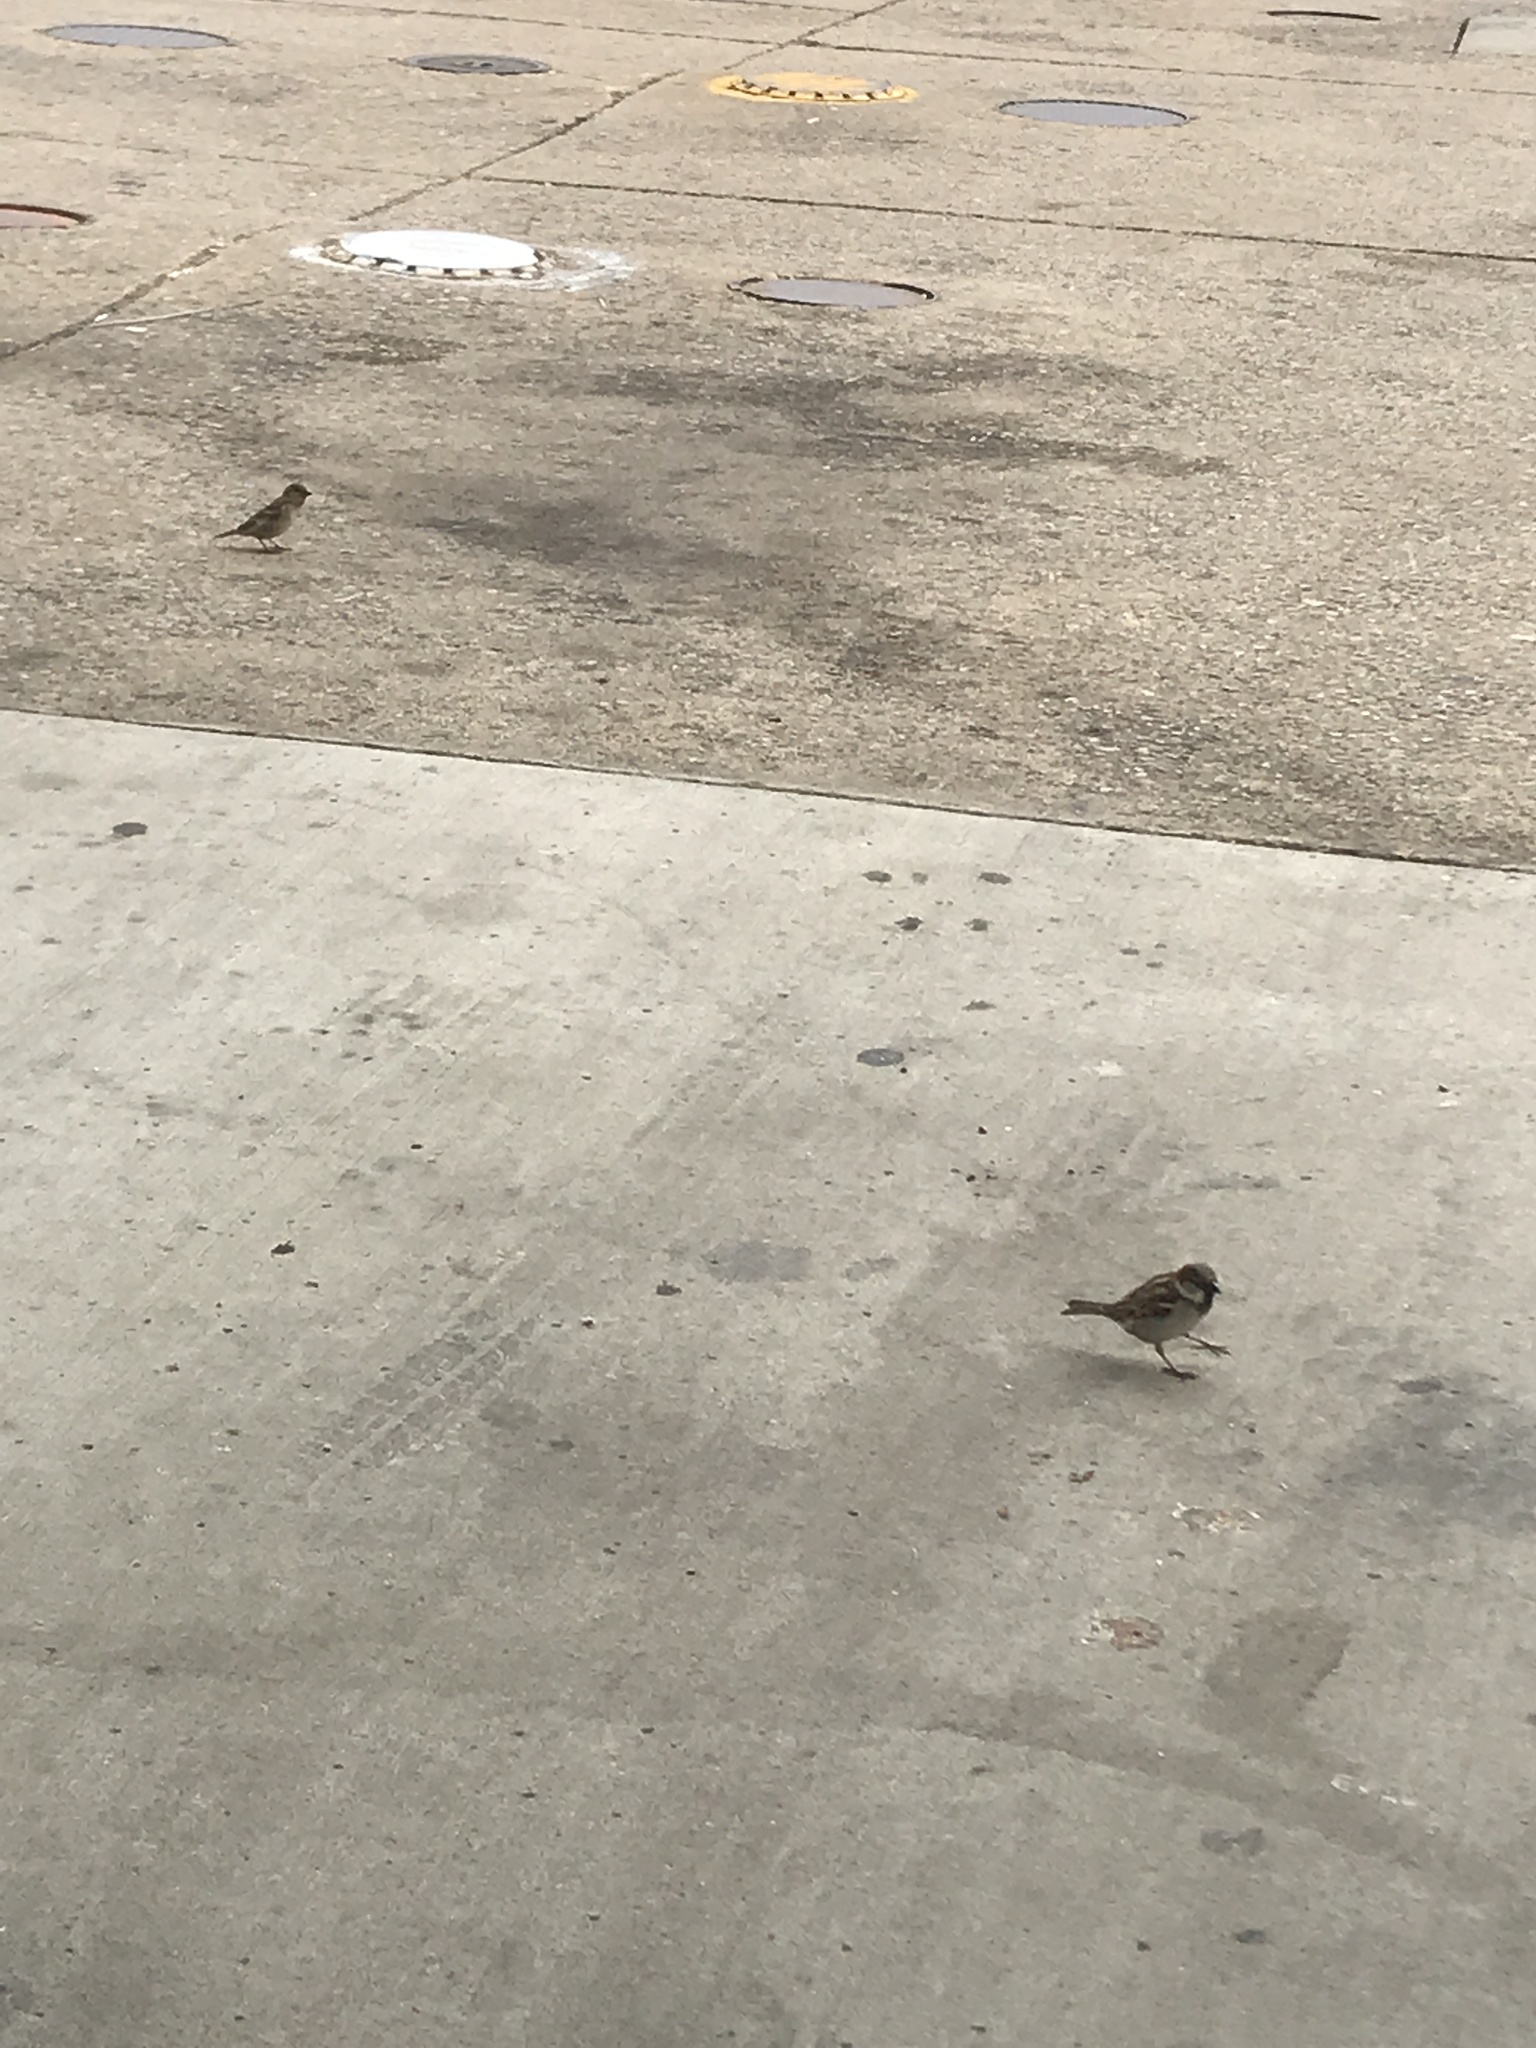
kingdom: Animalia
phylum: Chordata
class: Aves
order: Passeriformes
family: Passeridae
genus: Passer
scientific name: Passer domesticus
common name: House sparrow
